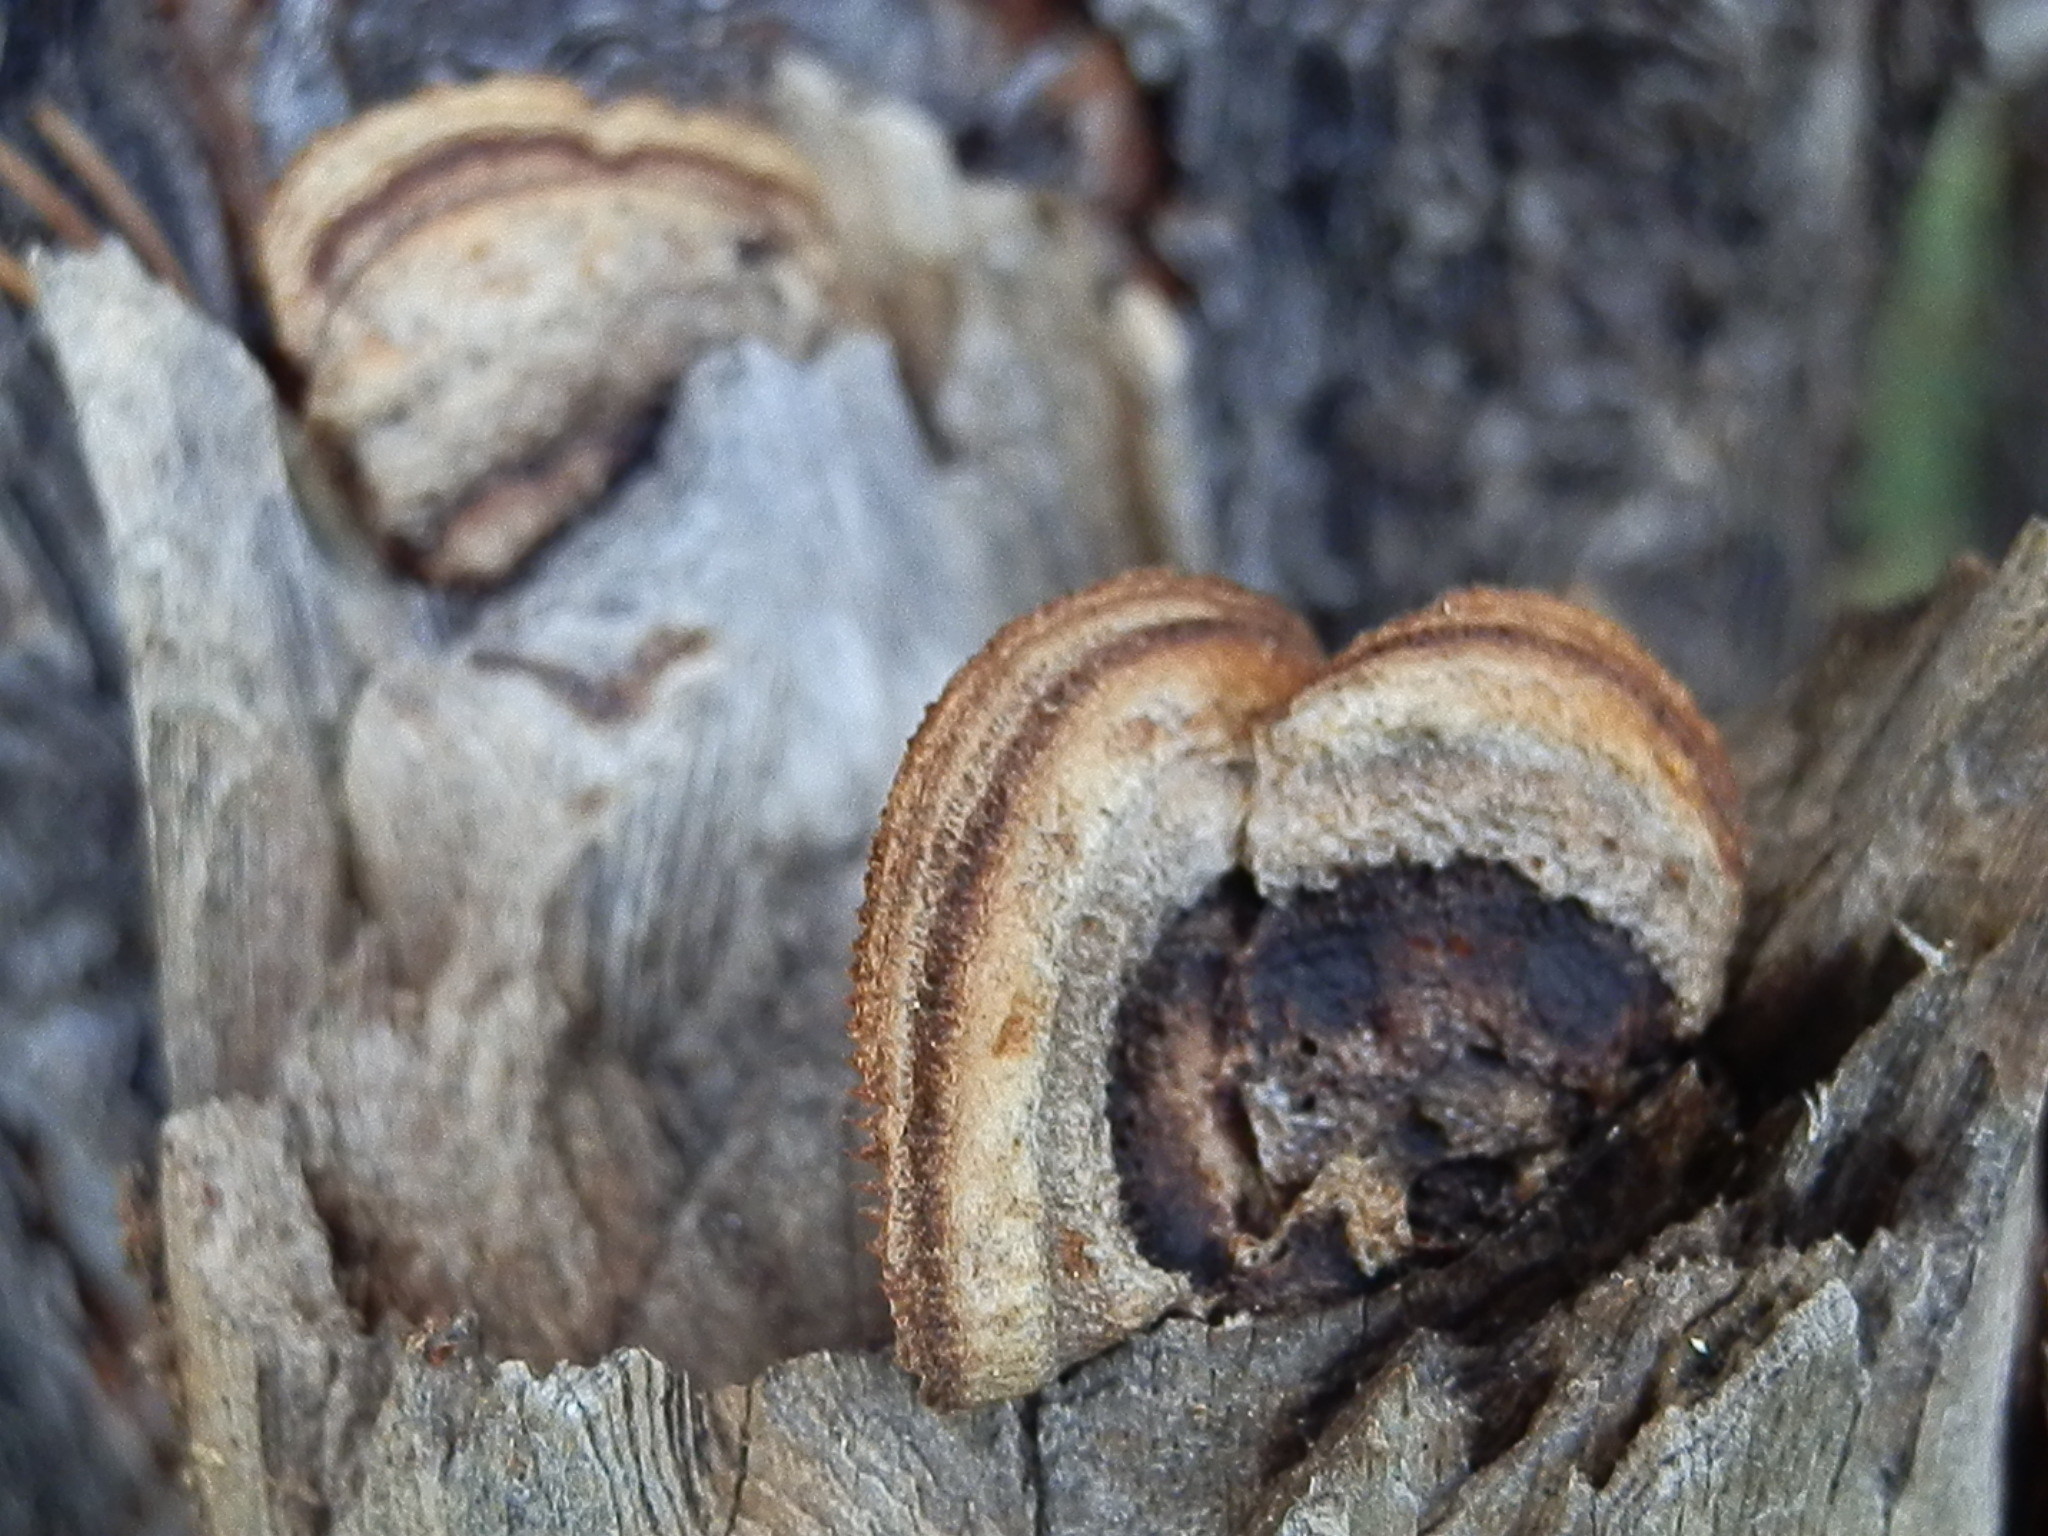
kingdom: Fungi
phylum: Basidiomycota
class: Agaricomycetes
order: Gloeophyllales
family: Gloeophyllaceae
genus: Gloeophyllum
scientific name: Gloeophyllum sepiarium
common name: Conifer mazegill
